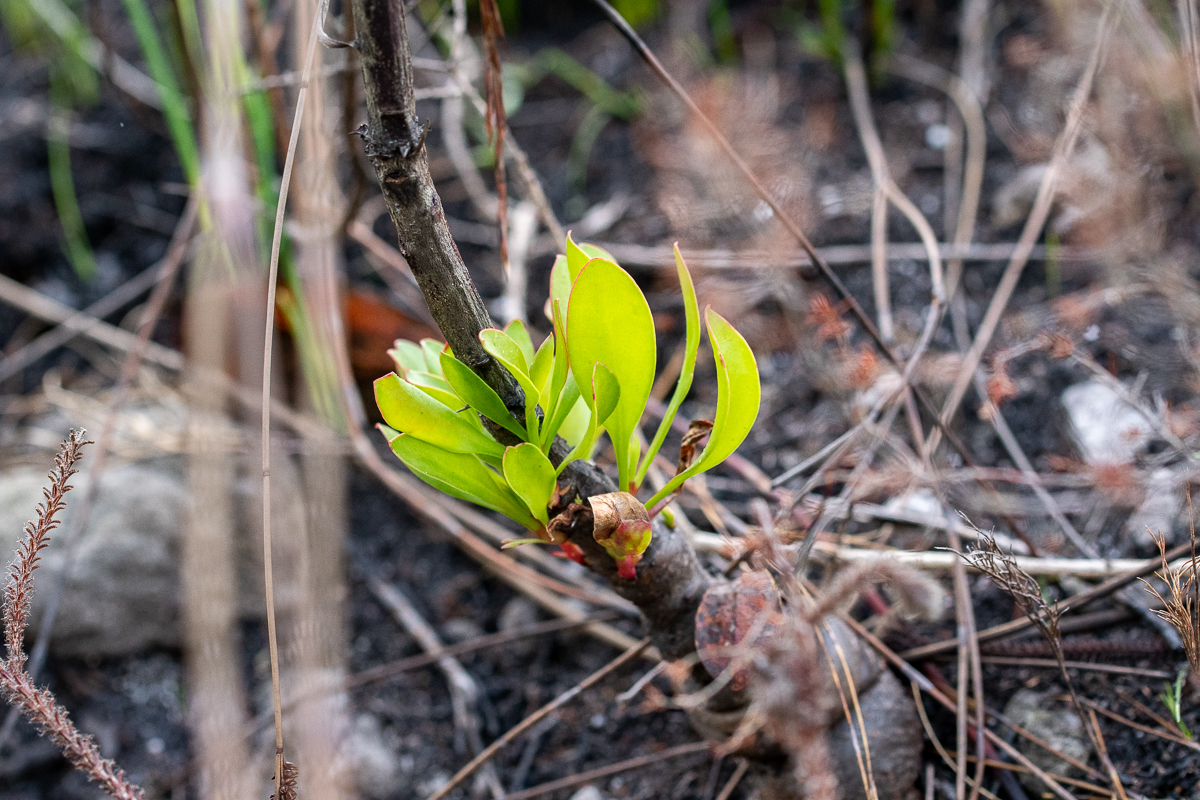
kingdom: Plantae
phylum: Tracheophyta
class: Magnoliopsida
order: Proteales
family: Proteaceae
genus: Protea
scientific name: Protea cynaroides
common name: King protea
